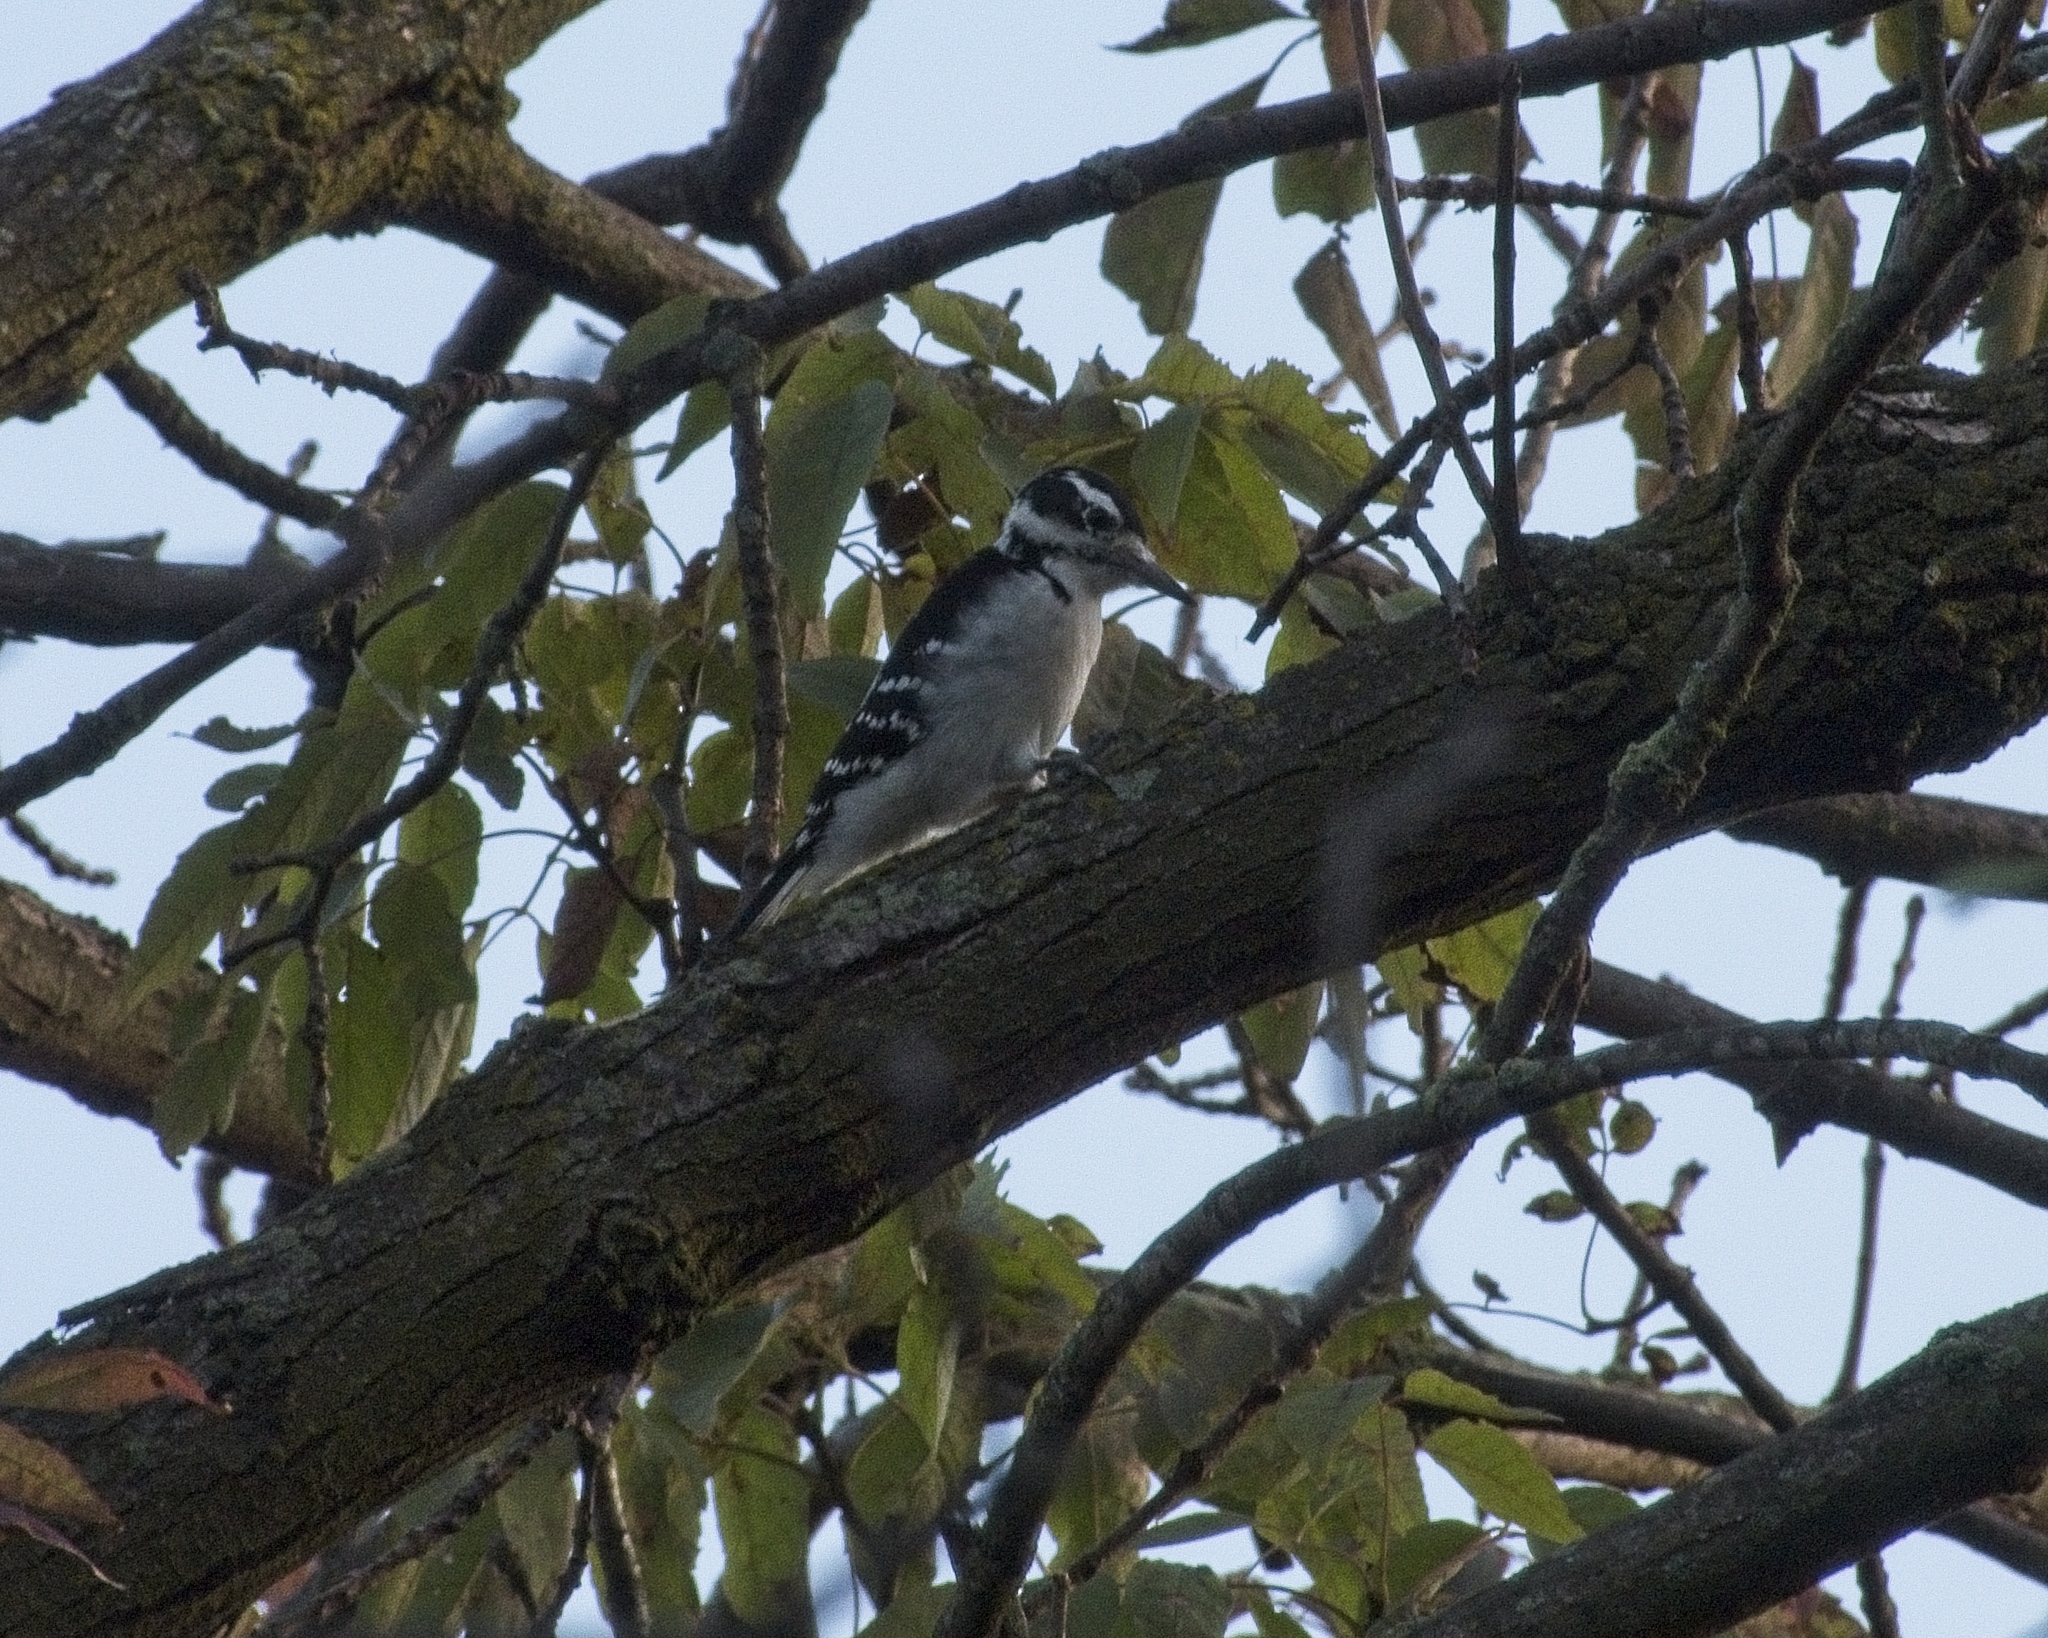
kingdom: Animalia
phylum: Chordata
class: Aves
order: Piciformes
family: Picidae
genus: Leuconotopicus
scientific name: Leuconotopicus villosus
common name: Hairy woodpecker
